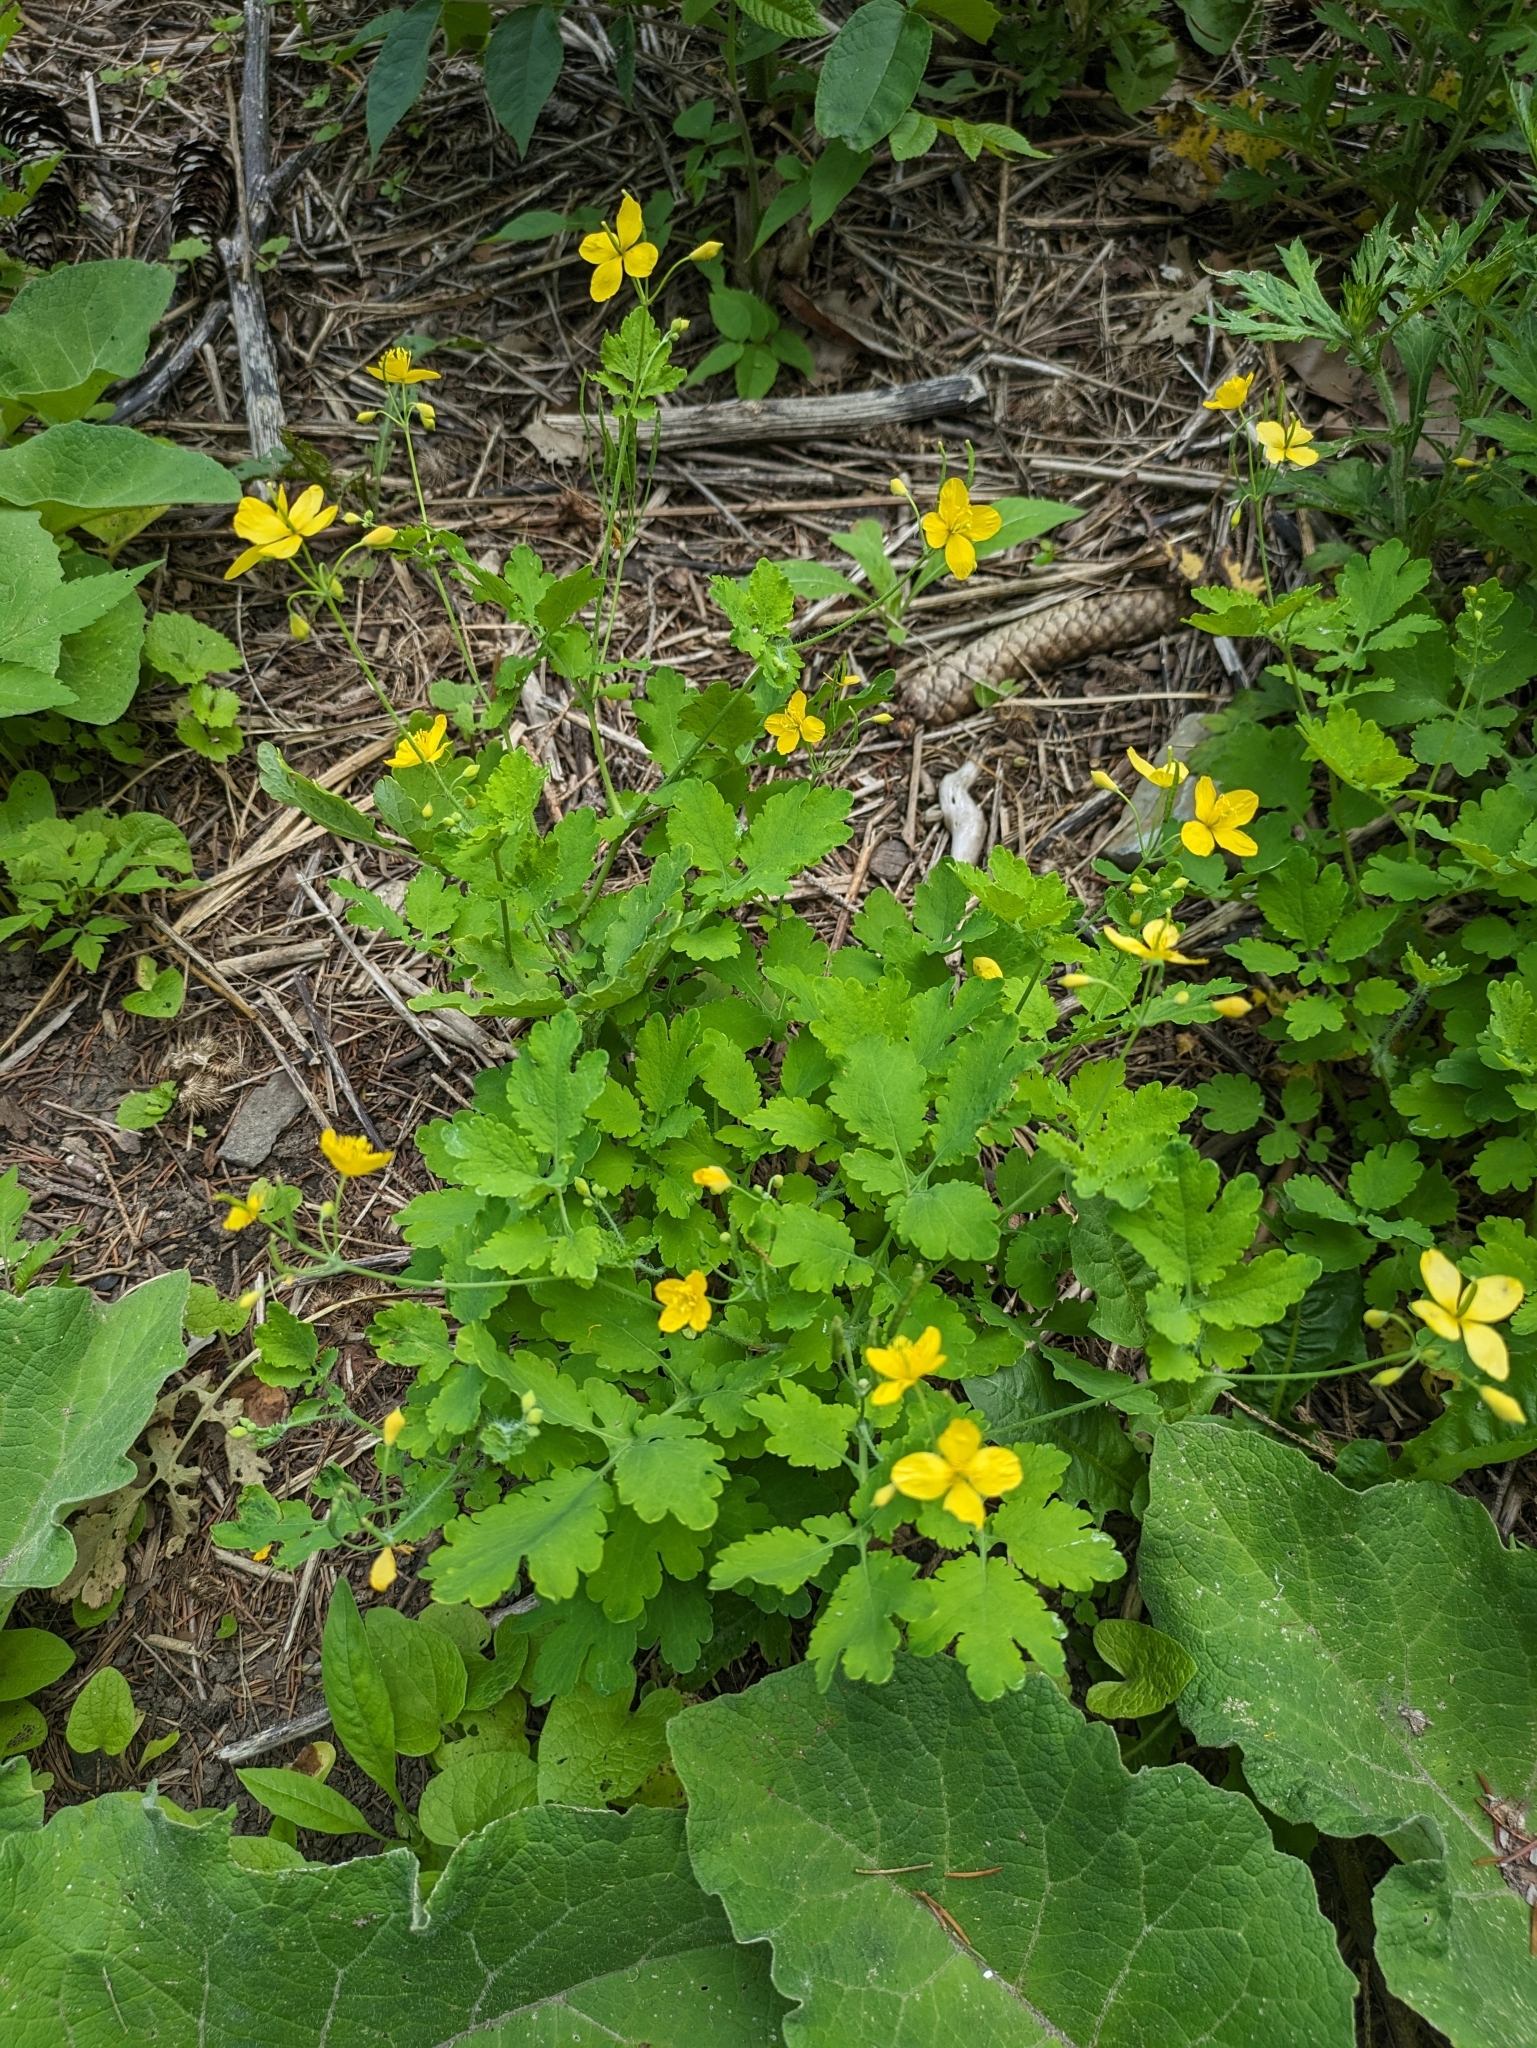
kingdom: Plantae
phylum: Tracheophyta
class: Magnoliopsida
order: Ranunculales
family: Papaveraceae
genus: Chelidonium
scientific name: Chelidonium majus
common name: Greater celandine
